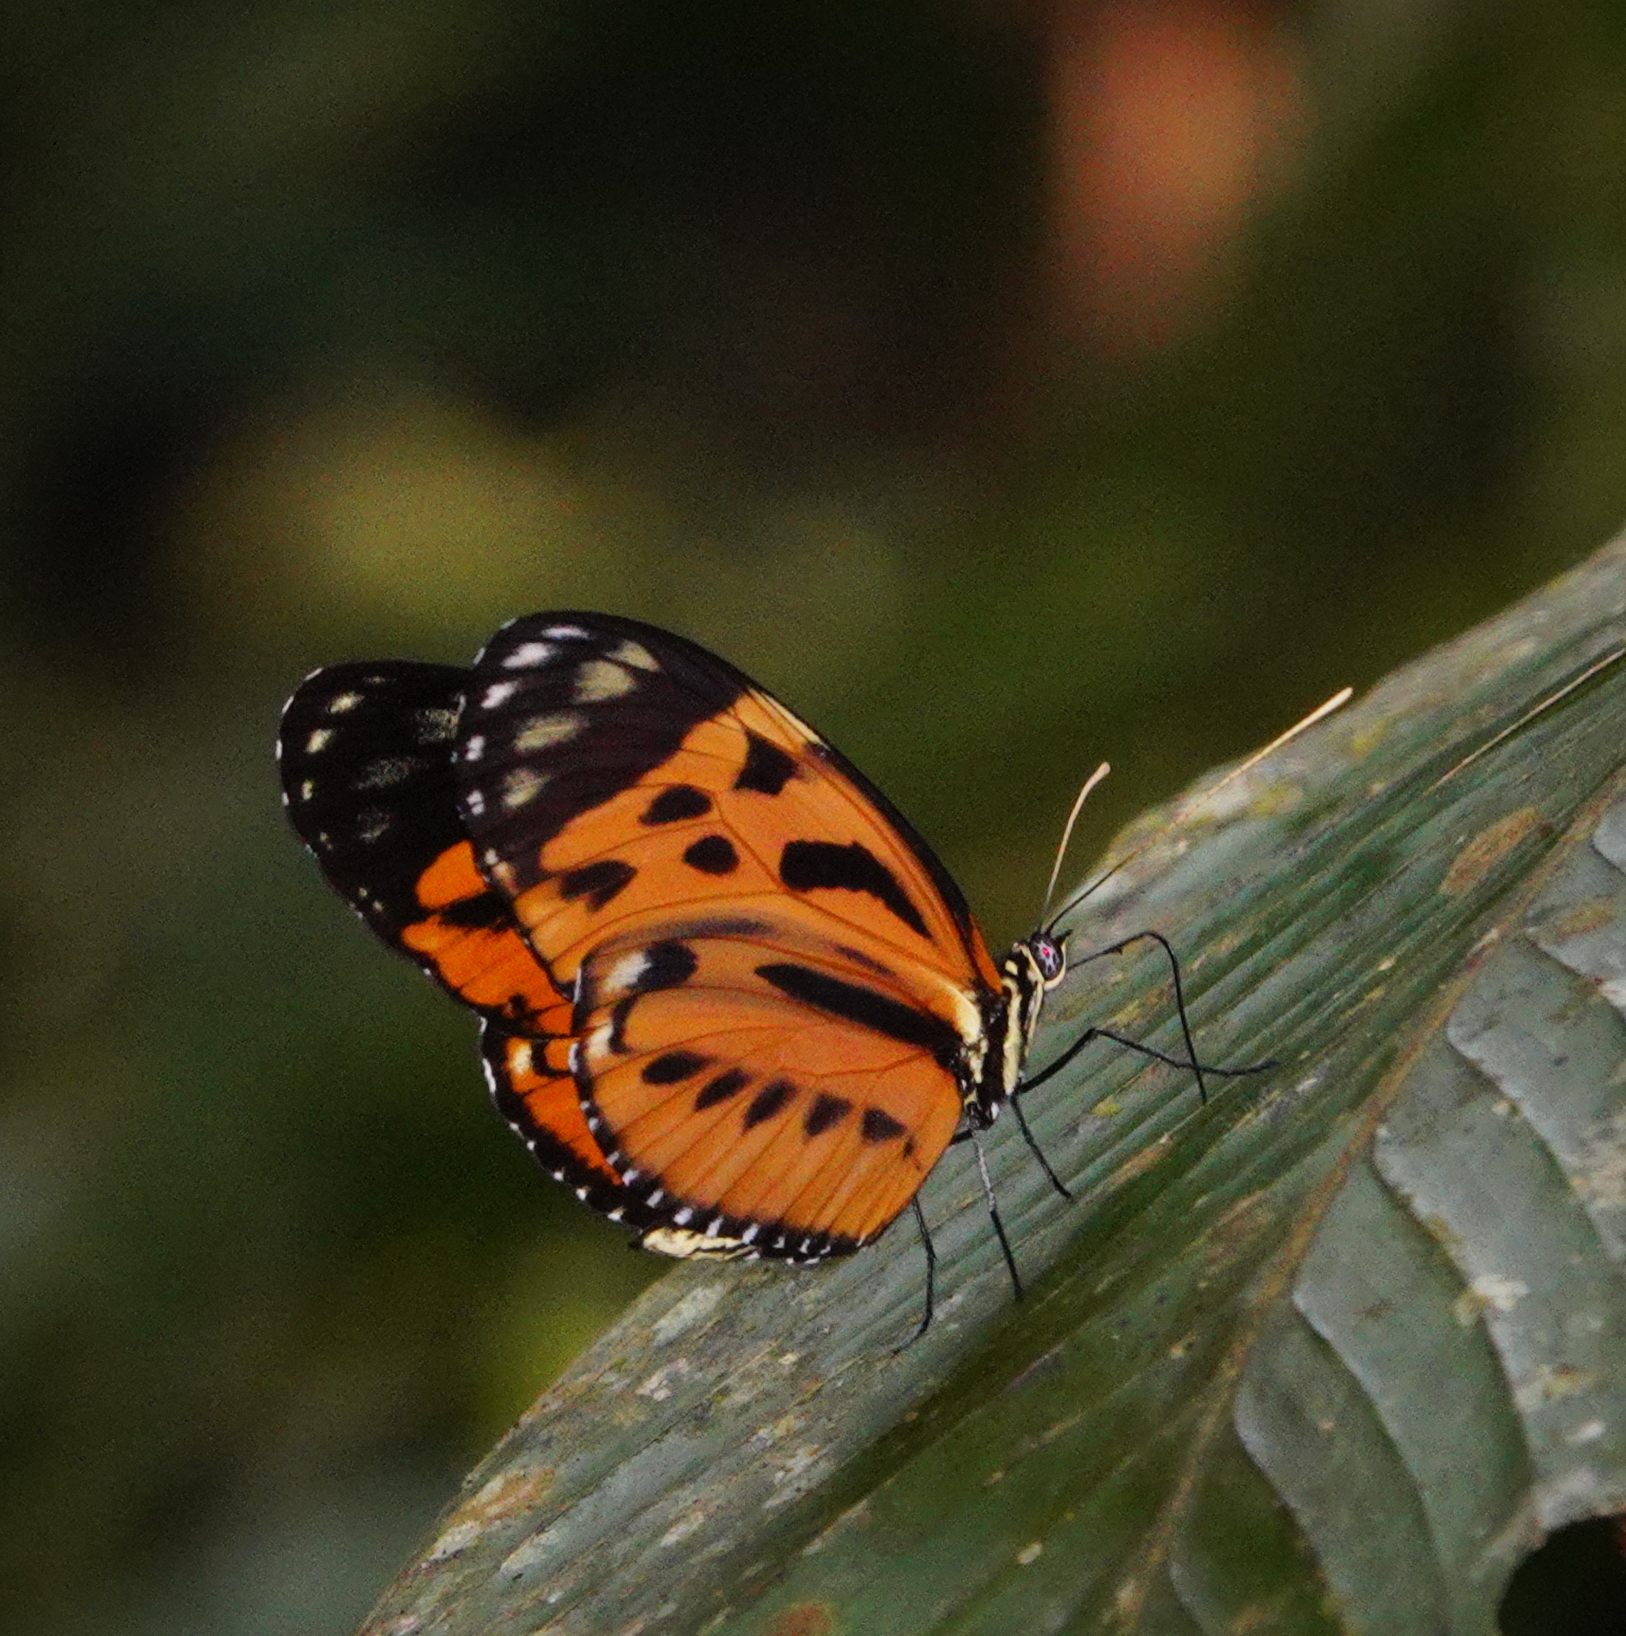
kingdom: Animalia
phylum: Arthropoda
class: Insecta
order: Lepidoptera
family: Nymphalidae
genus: Heliconius
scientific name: Heliconius hecale
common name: Tiger longwing
